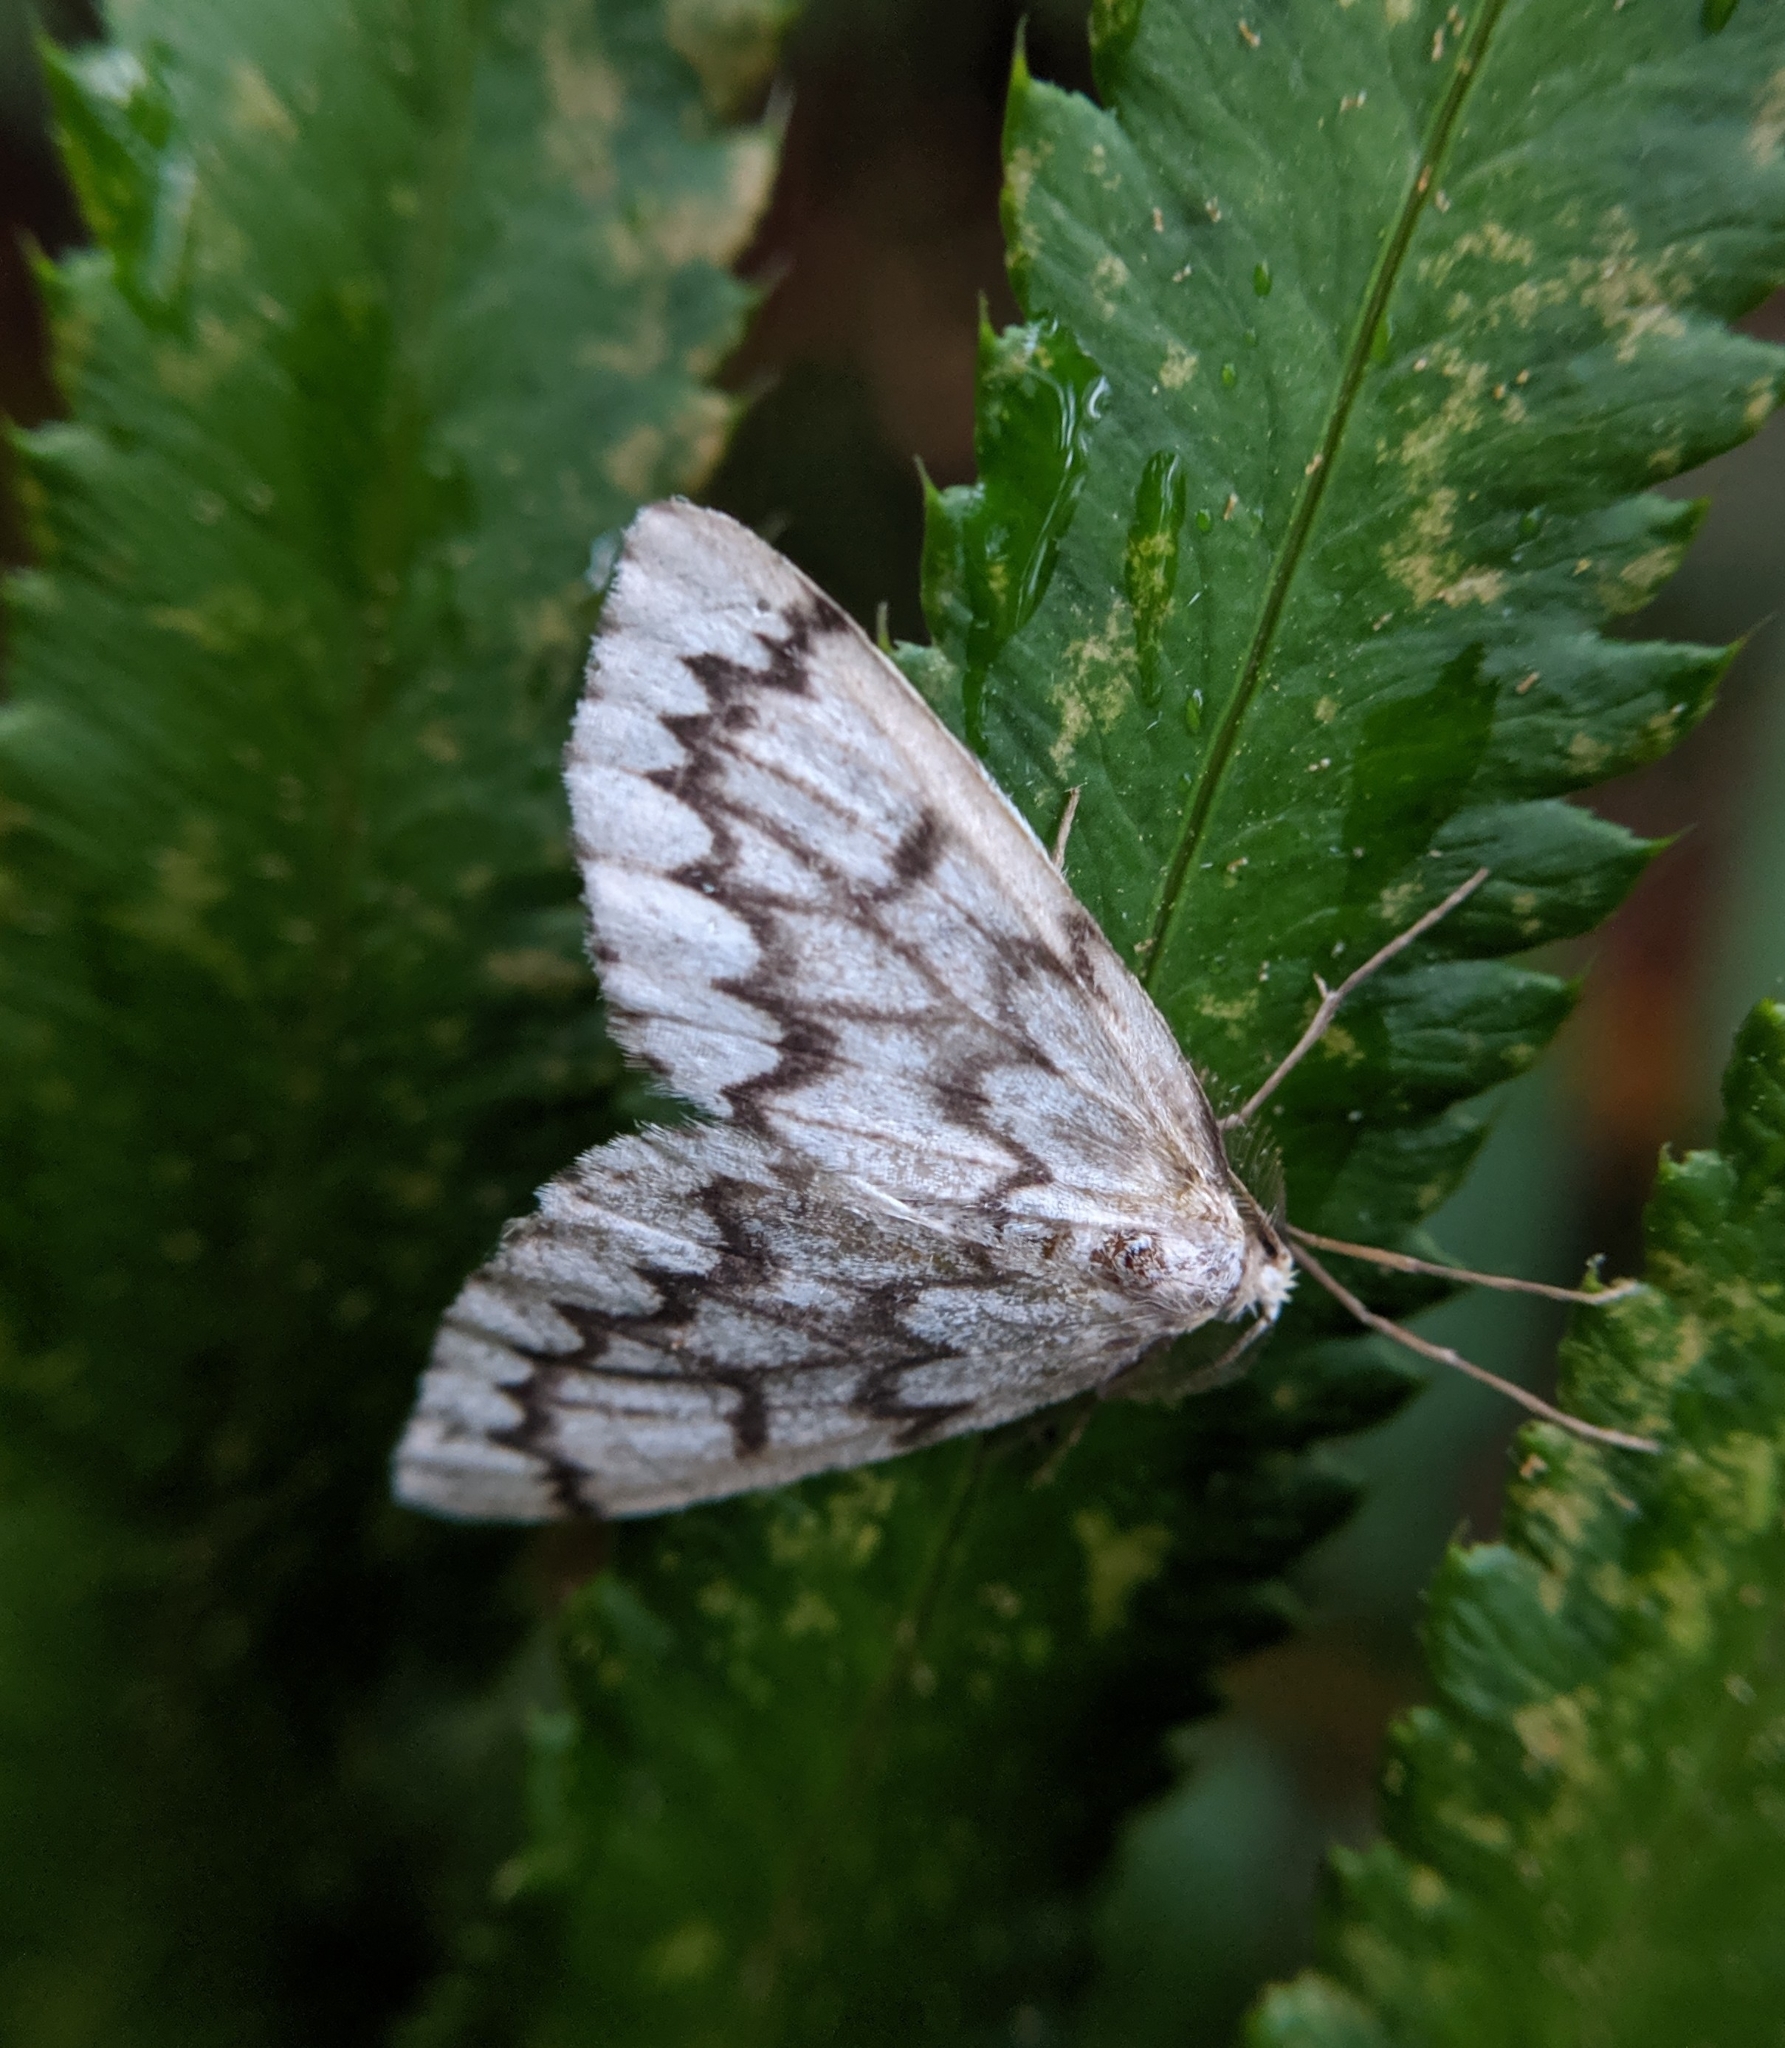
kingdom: Animalia
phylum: Arthropoda
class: Insecta
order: Lepidoptera
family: Geometridae
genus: Nepytia
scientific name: Nepytia phantasmaria
